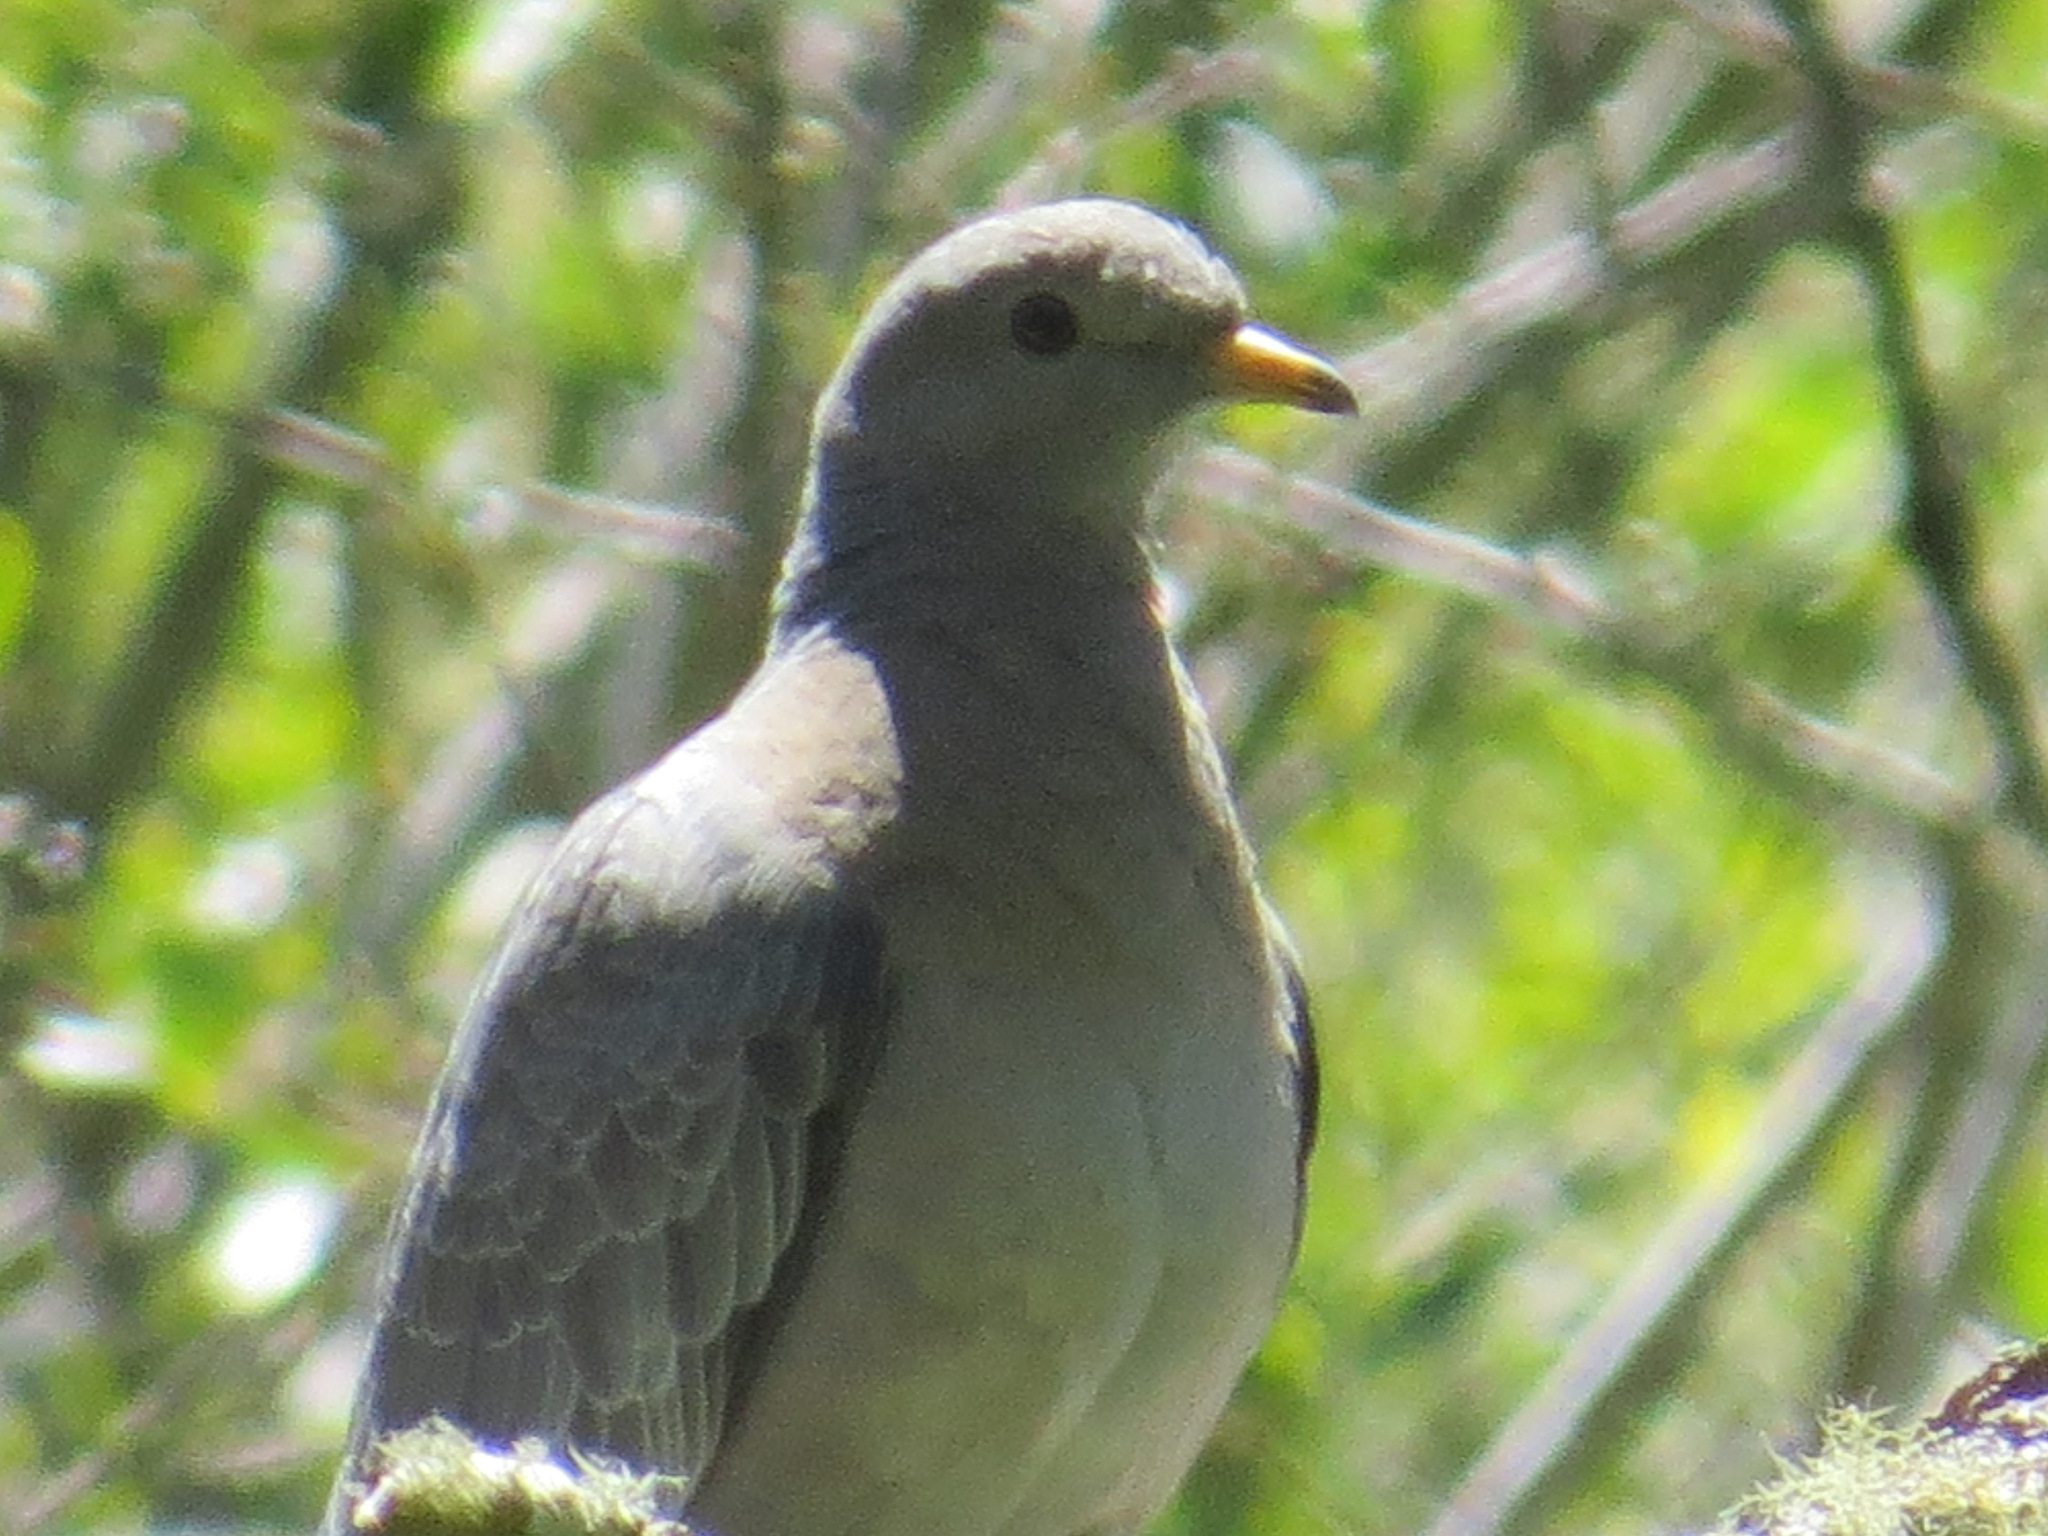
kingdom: Animalia
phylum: Chordata
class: Aves
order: Columbiformes
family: Columbidae
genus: Patagioenas
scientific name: Patagioenas fasciata
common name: Band-tailed pigeon
